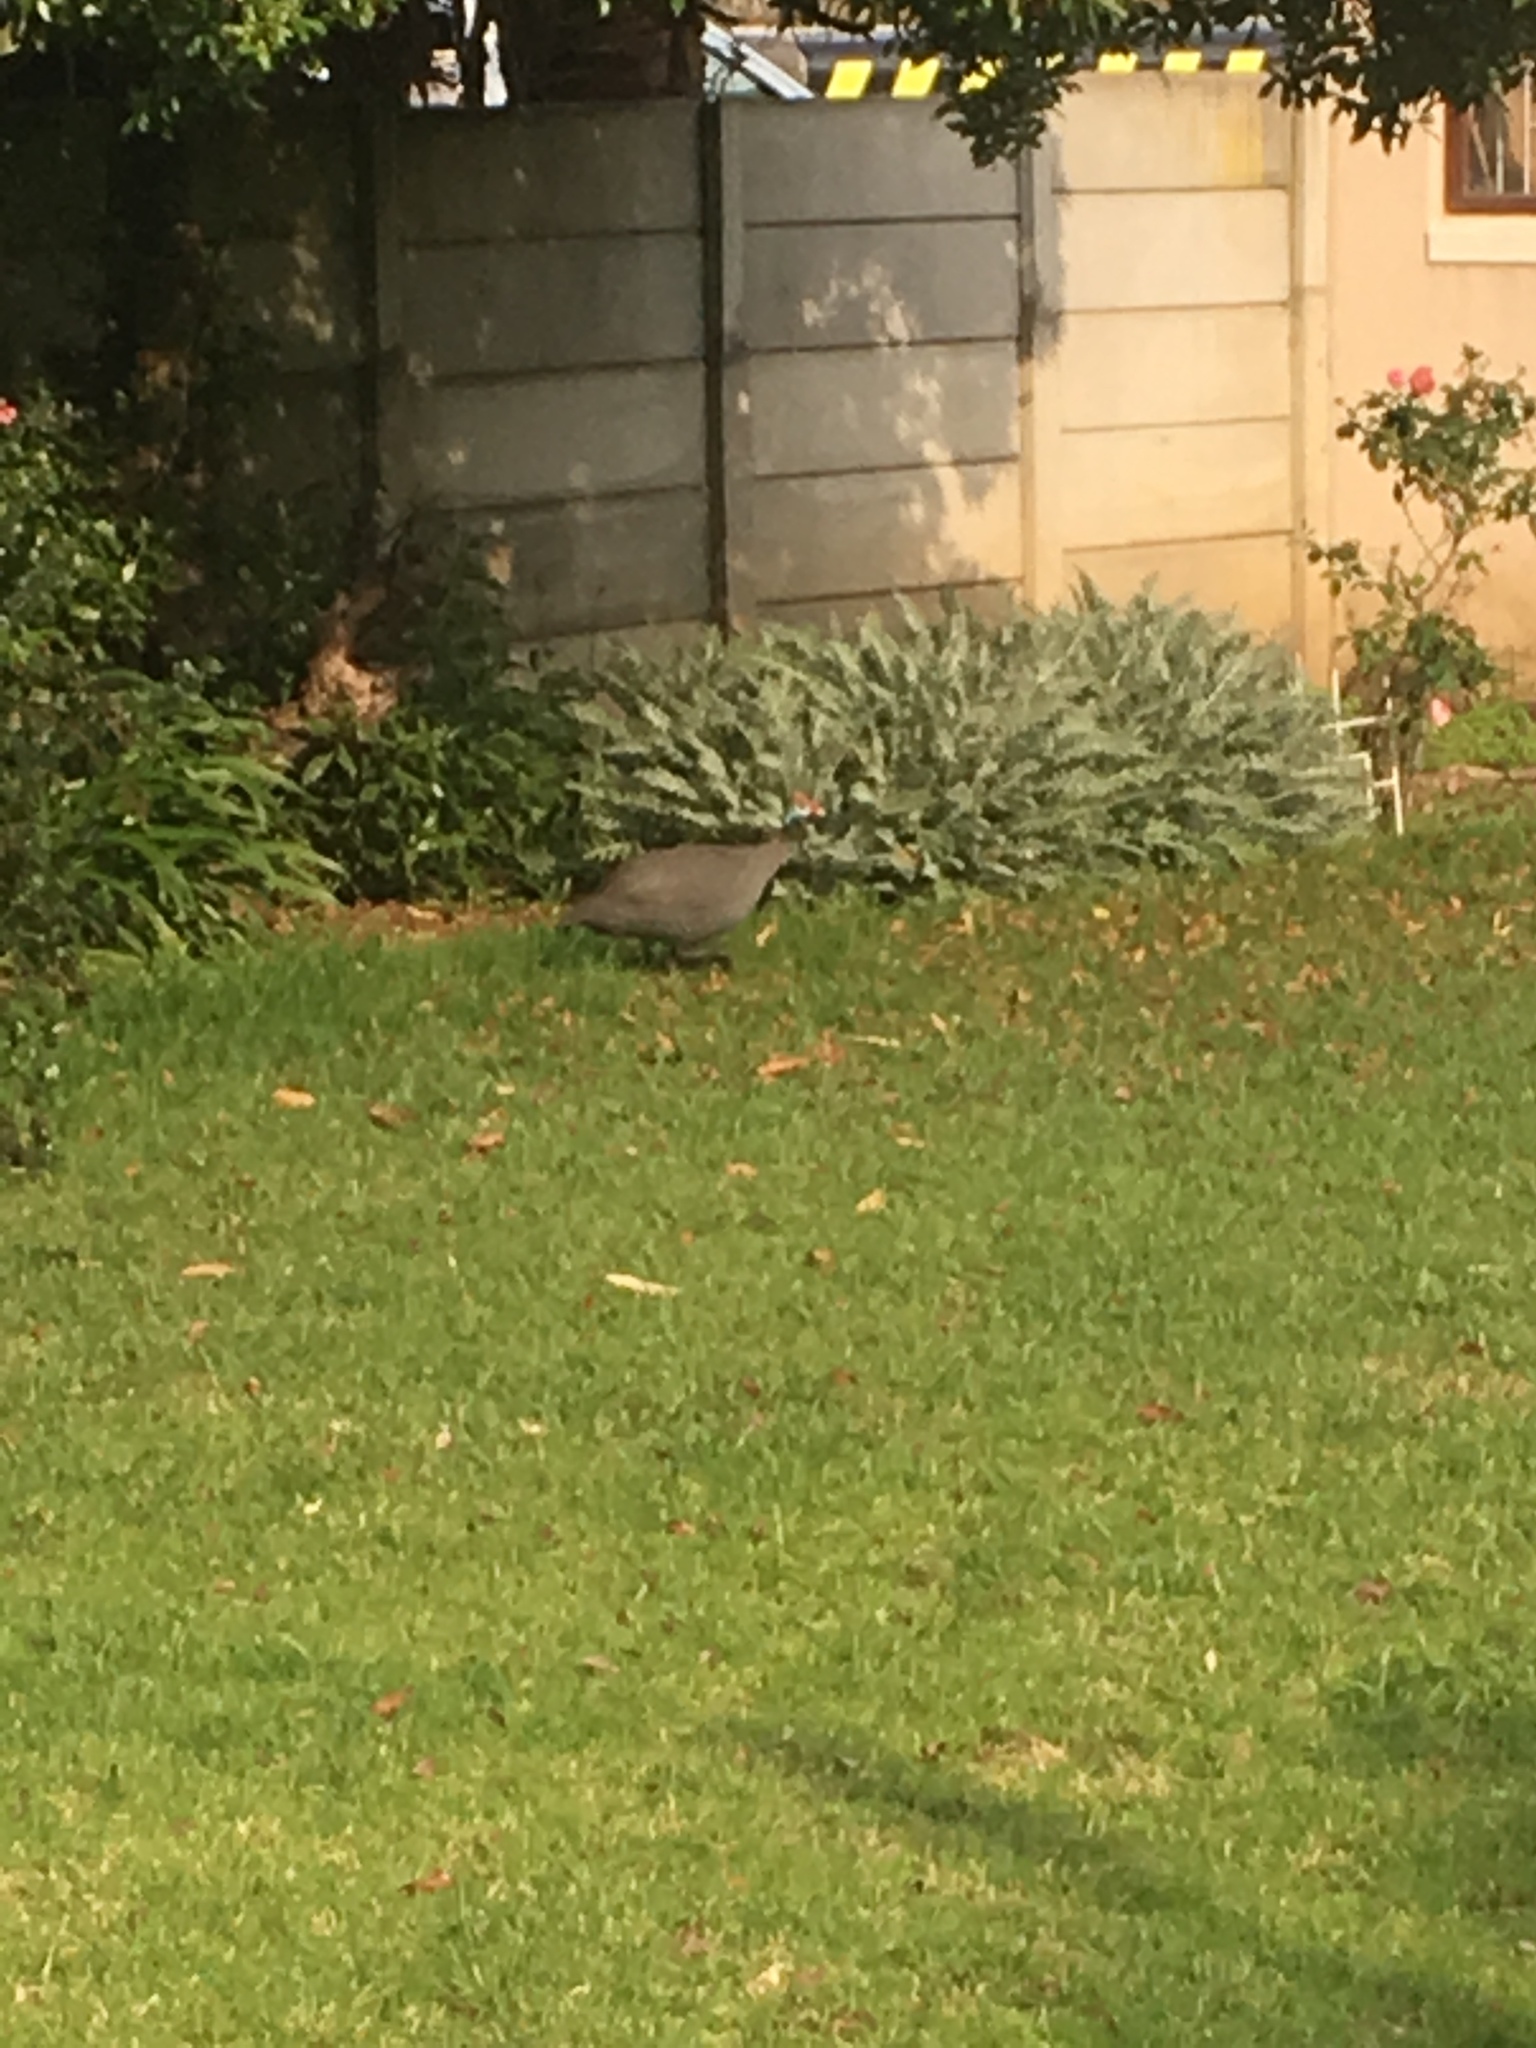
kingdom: Animalia
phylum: Chordata
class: Aves
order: Galliformes
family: Numididae
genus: Numida
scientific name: Numida meleagris
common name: Helmeted guineafowl
